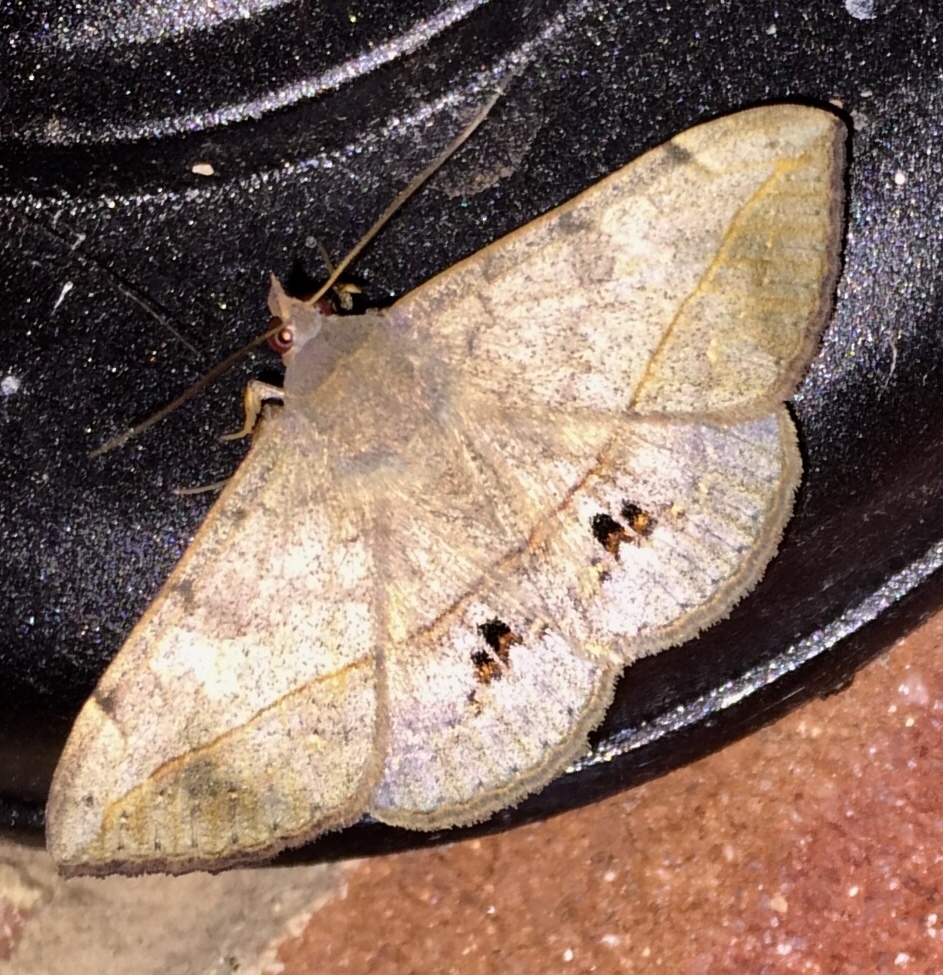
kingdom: Animalia
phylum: Arthropoda
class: Insecta
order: Lepidoptera
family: Erebidae
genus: Anticarsia
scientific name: Anticarsia gemmatalis
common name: Cutworm moth
